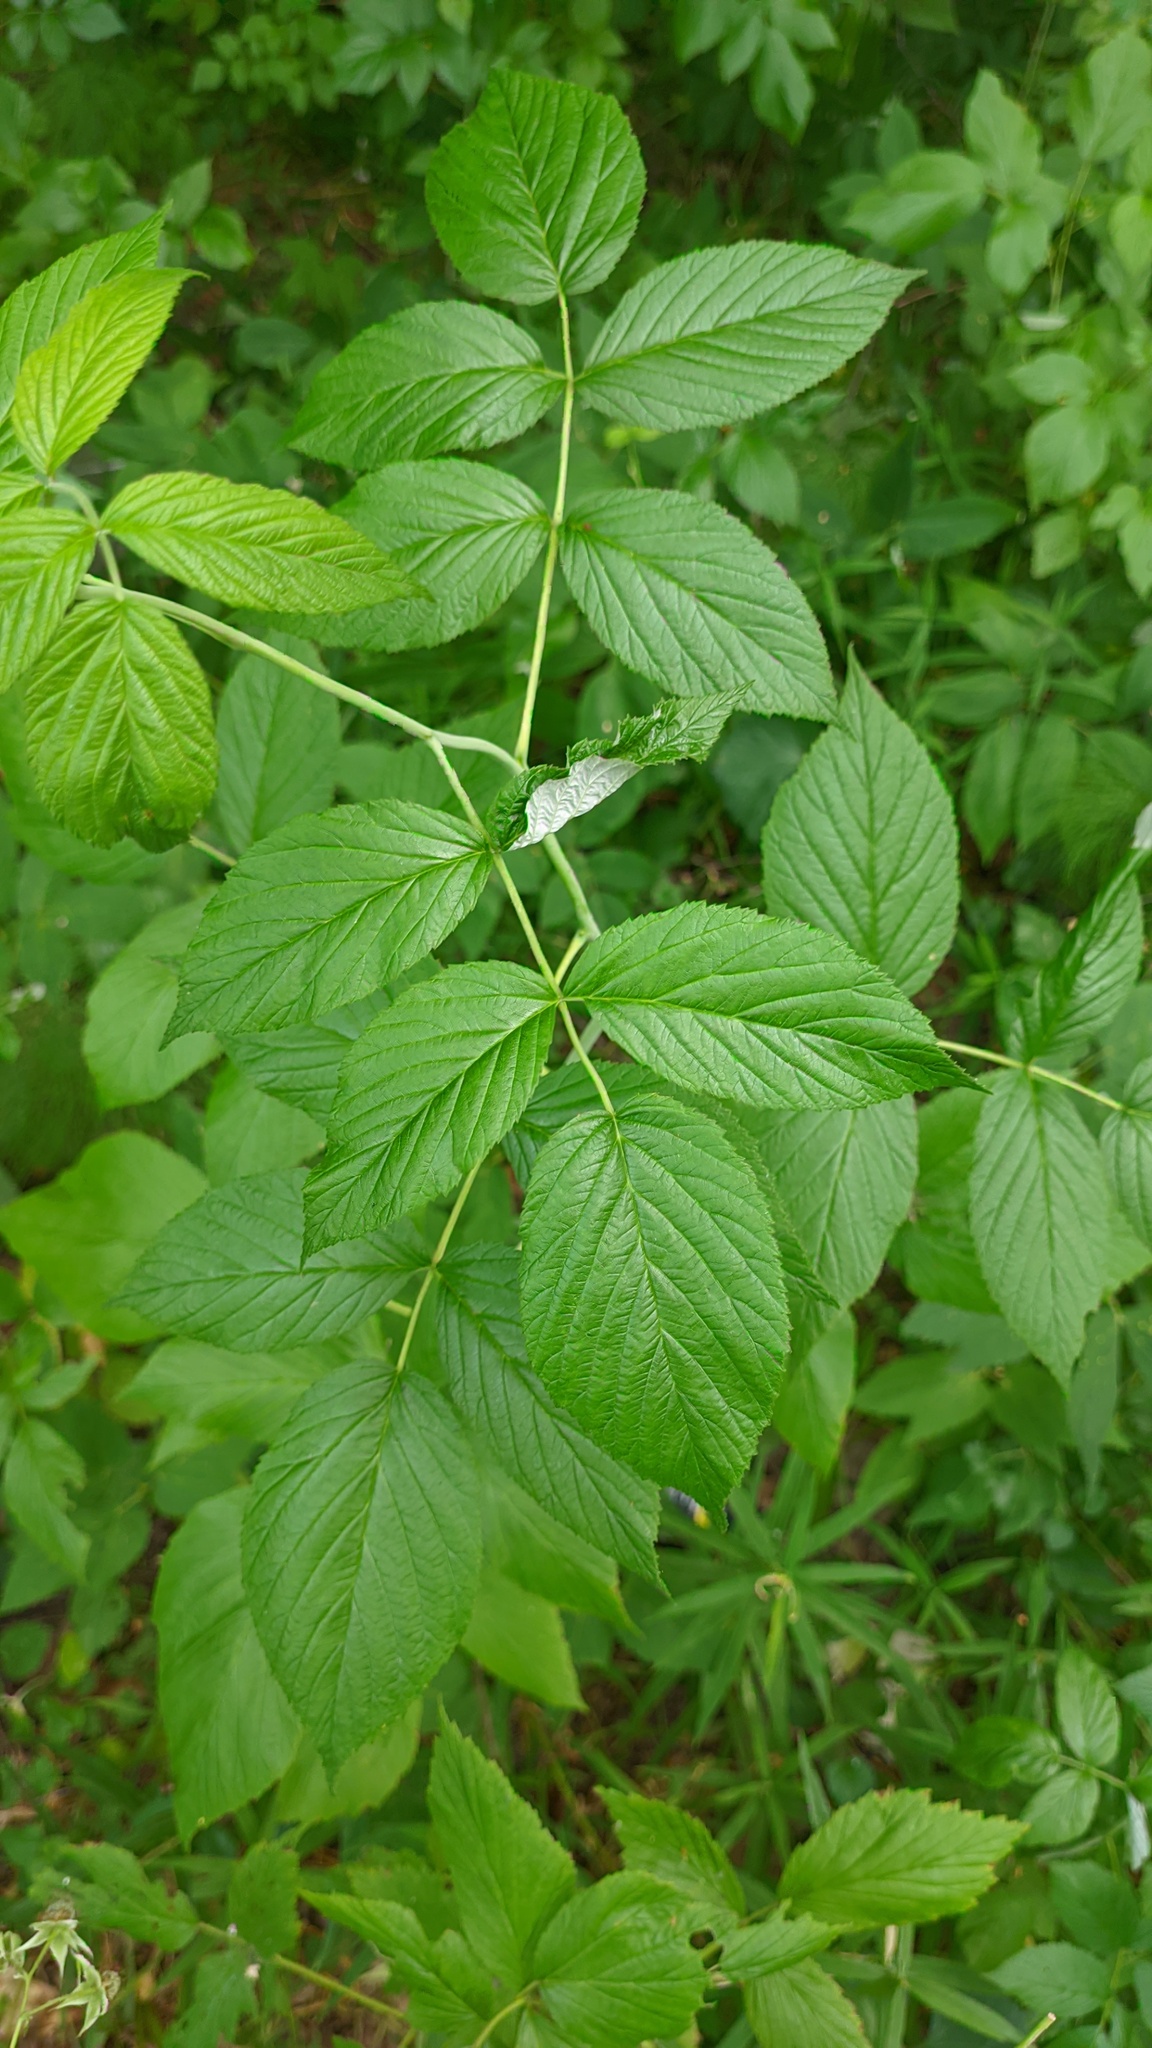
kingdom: Plantae
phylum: Tracheophyta
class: Magnoliopsida
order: Rosales
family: Rosaceae
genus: Rubus
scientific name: Rubus idaeus
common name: Raspberry
